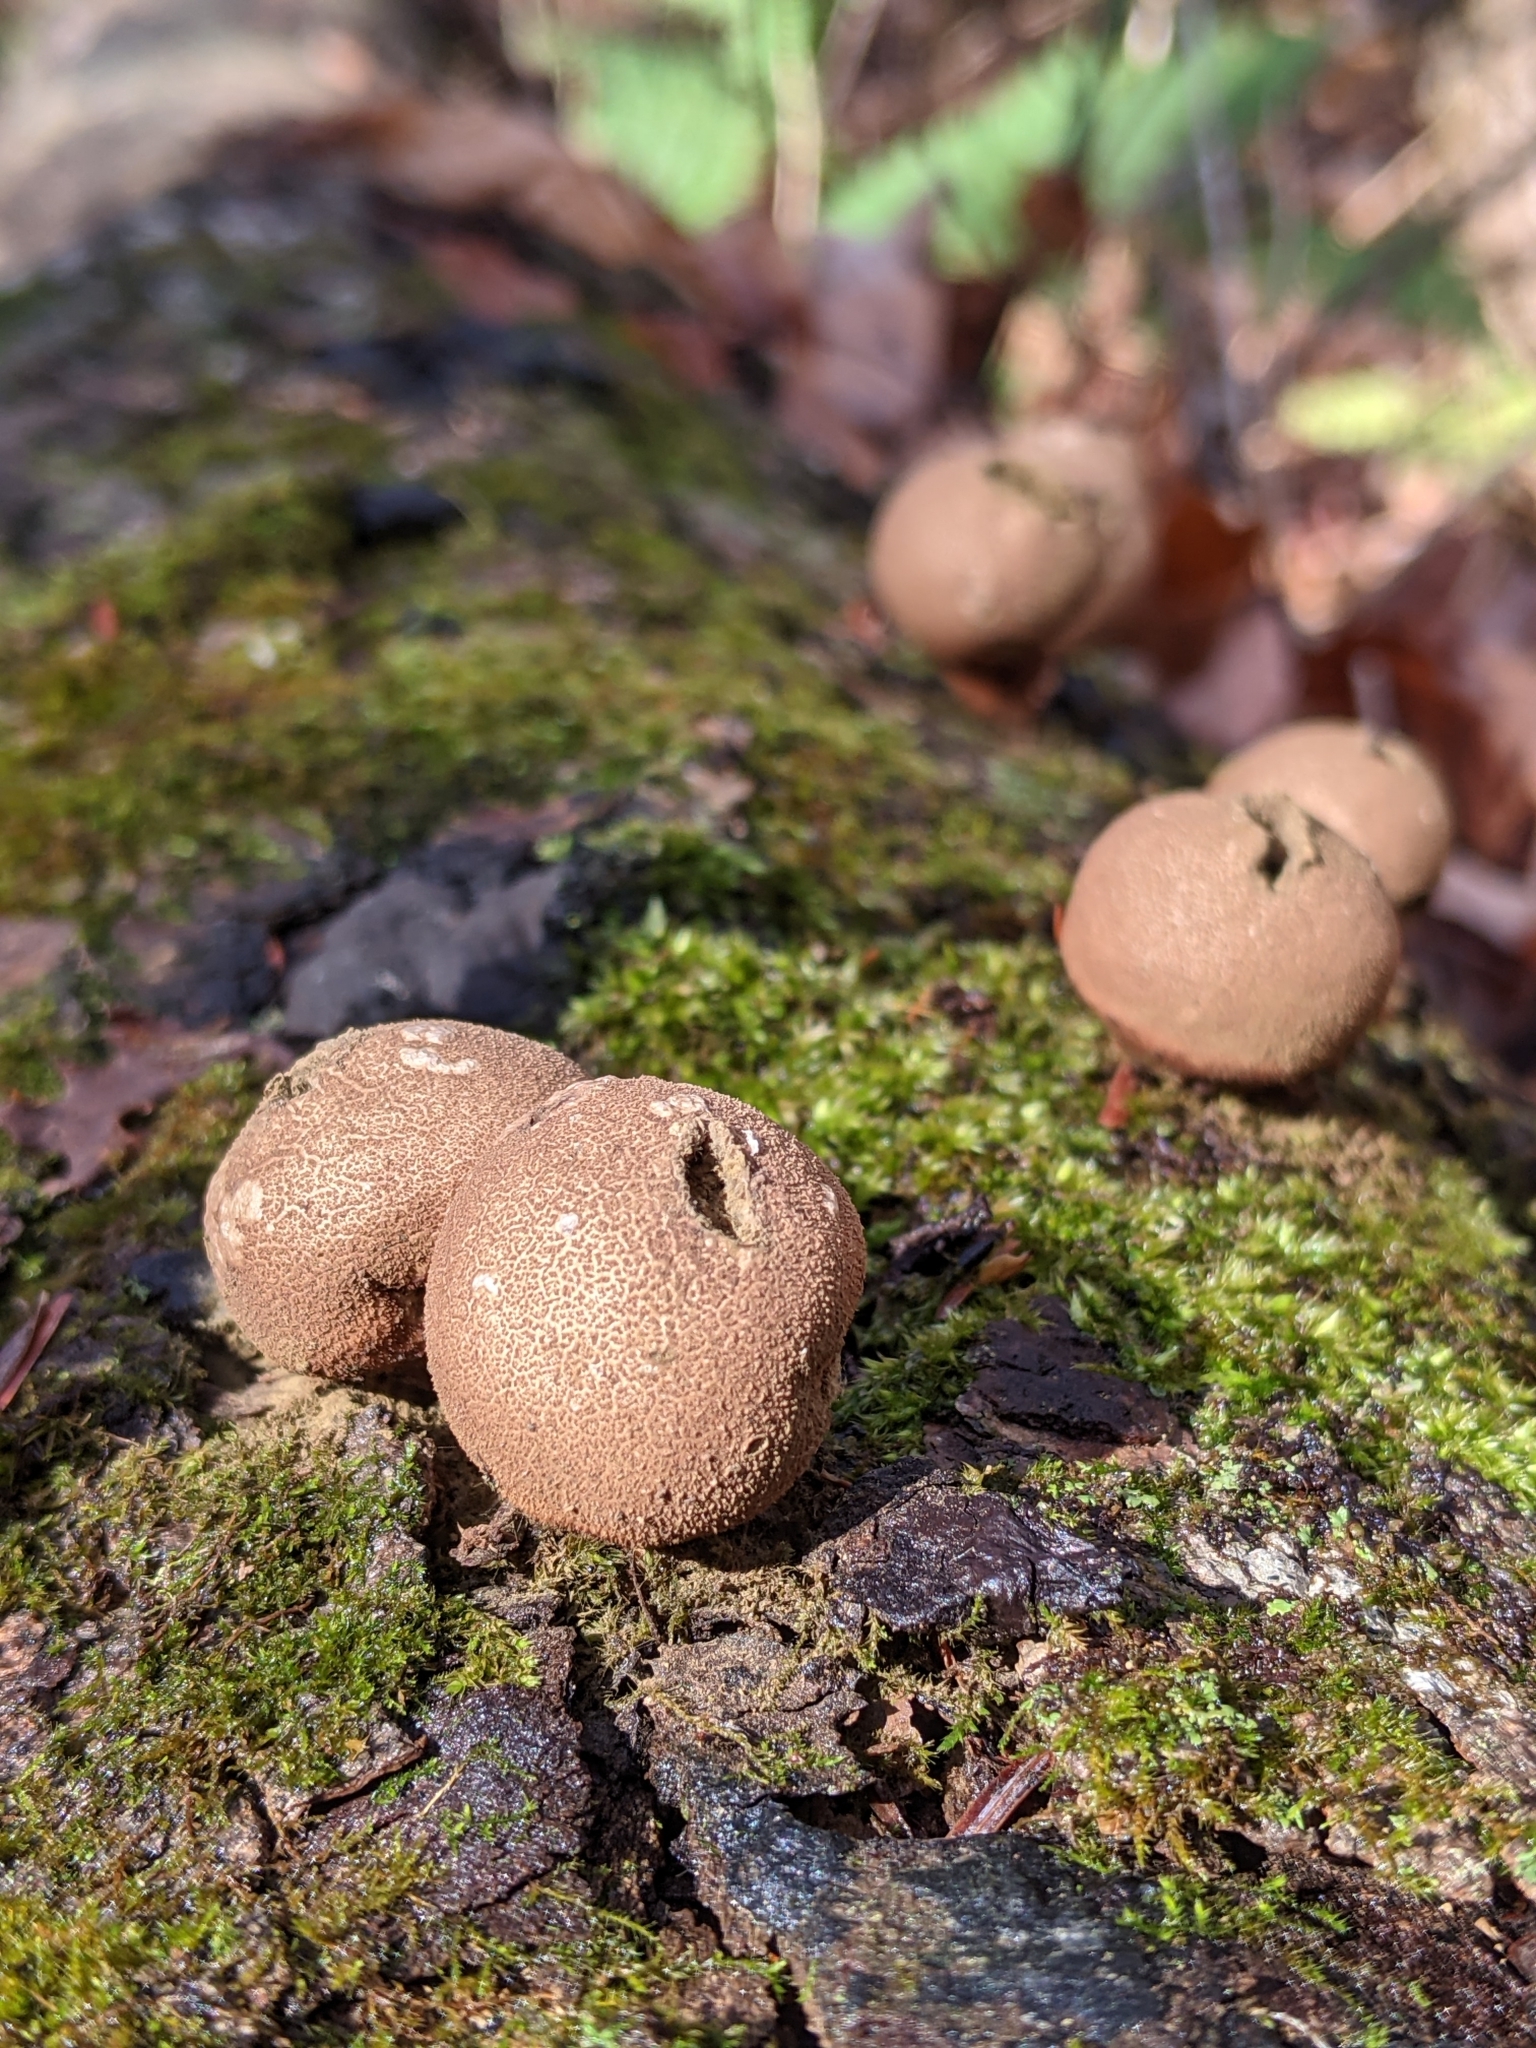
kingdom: Fungi
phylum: Basidiomycota
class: Agaricomycetes
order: Agaricales
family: Lycoperdaceae
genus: Apioperdon
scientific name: Apioperdon pyriforme
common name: Pear-shaped puffball
